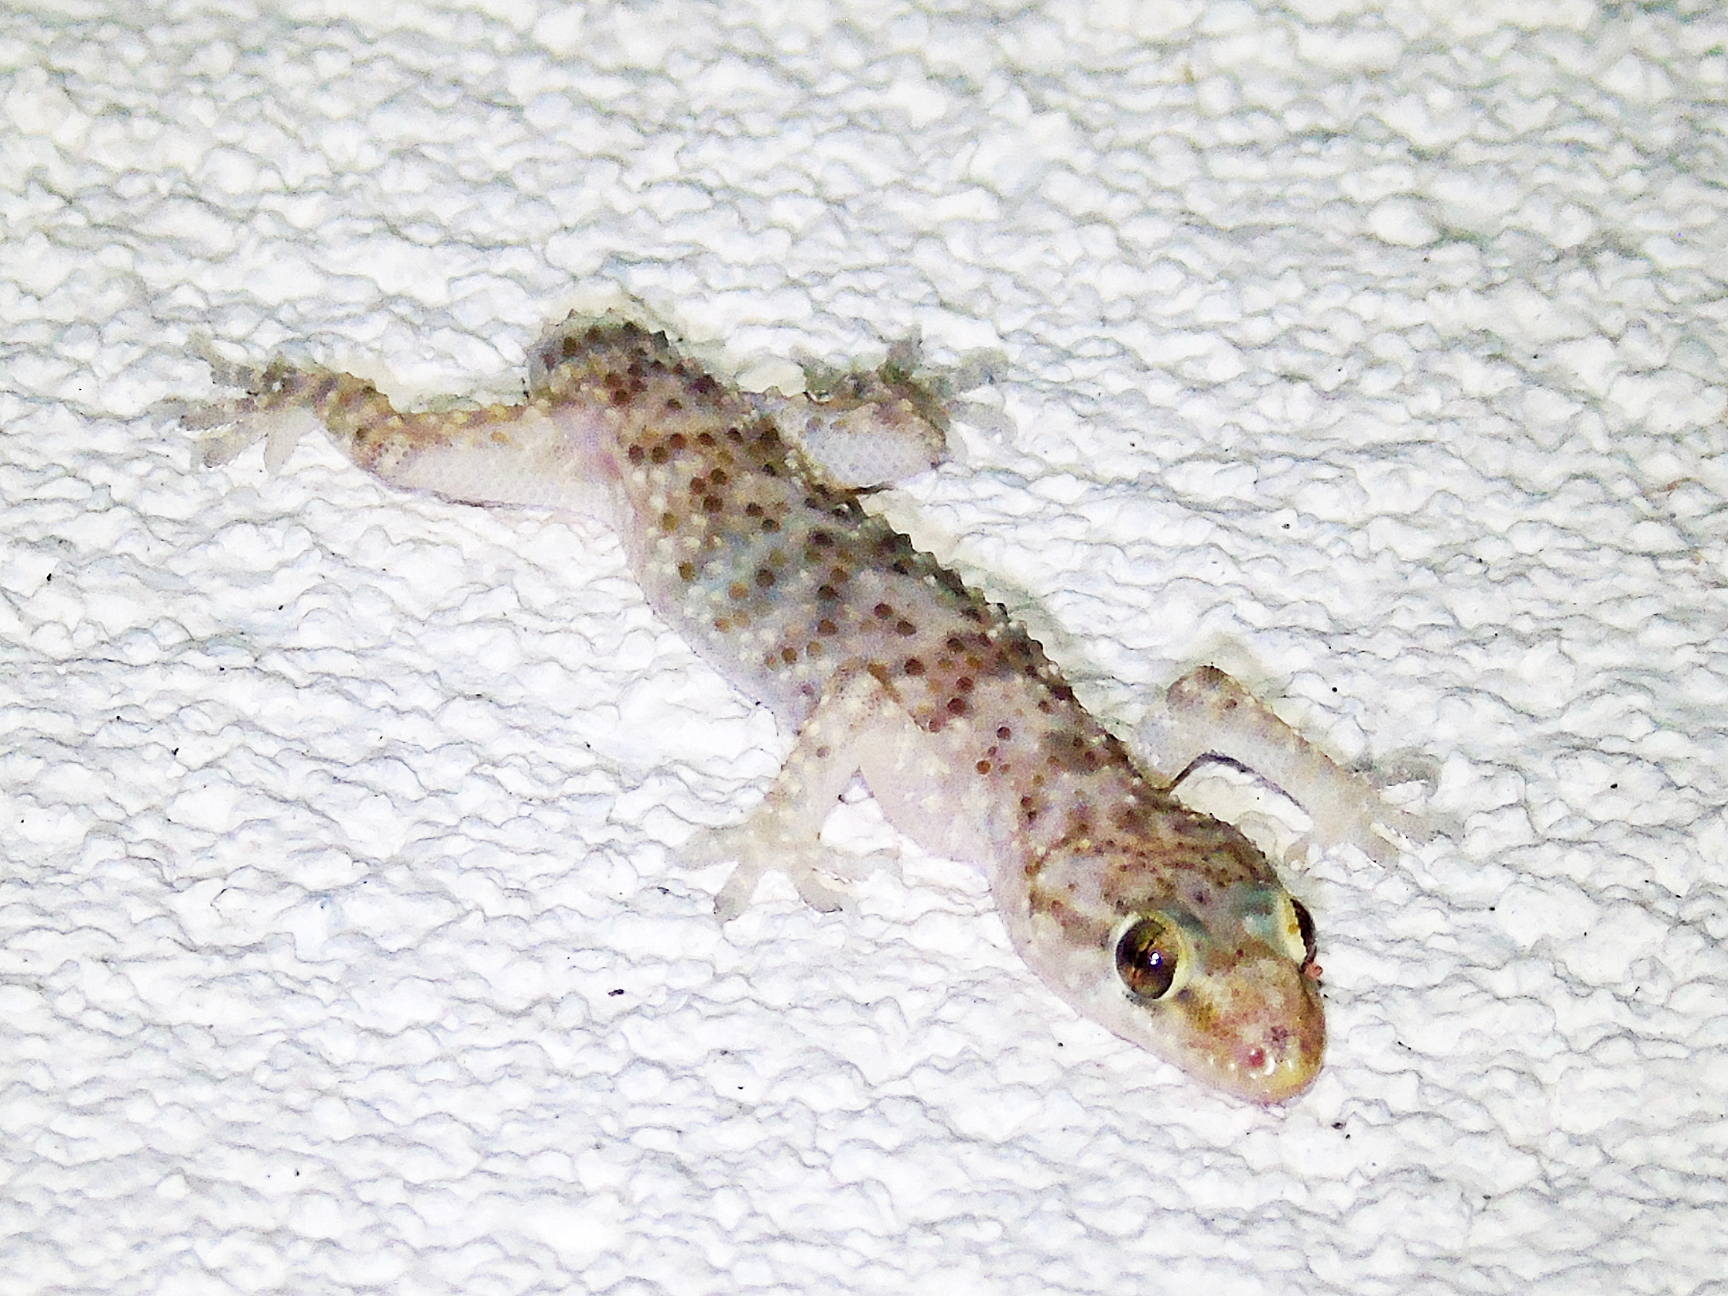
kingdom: Animalia
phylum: Chordata
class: Squamata
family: Gekkonidae
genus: Hemidactylus
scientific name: Hemidactylus turcicus
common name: Turkish gecko
